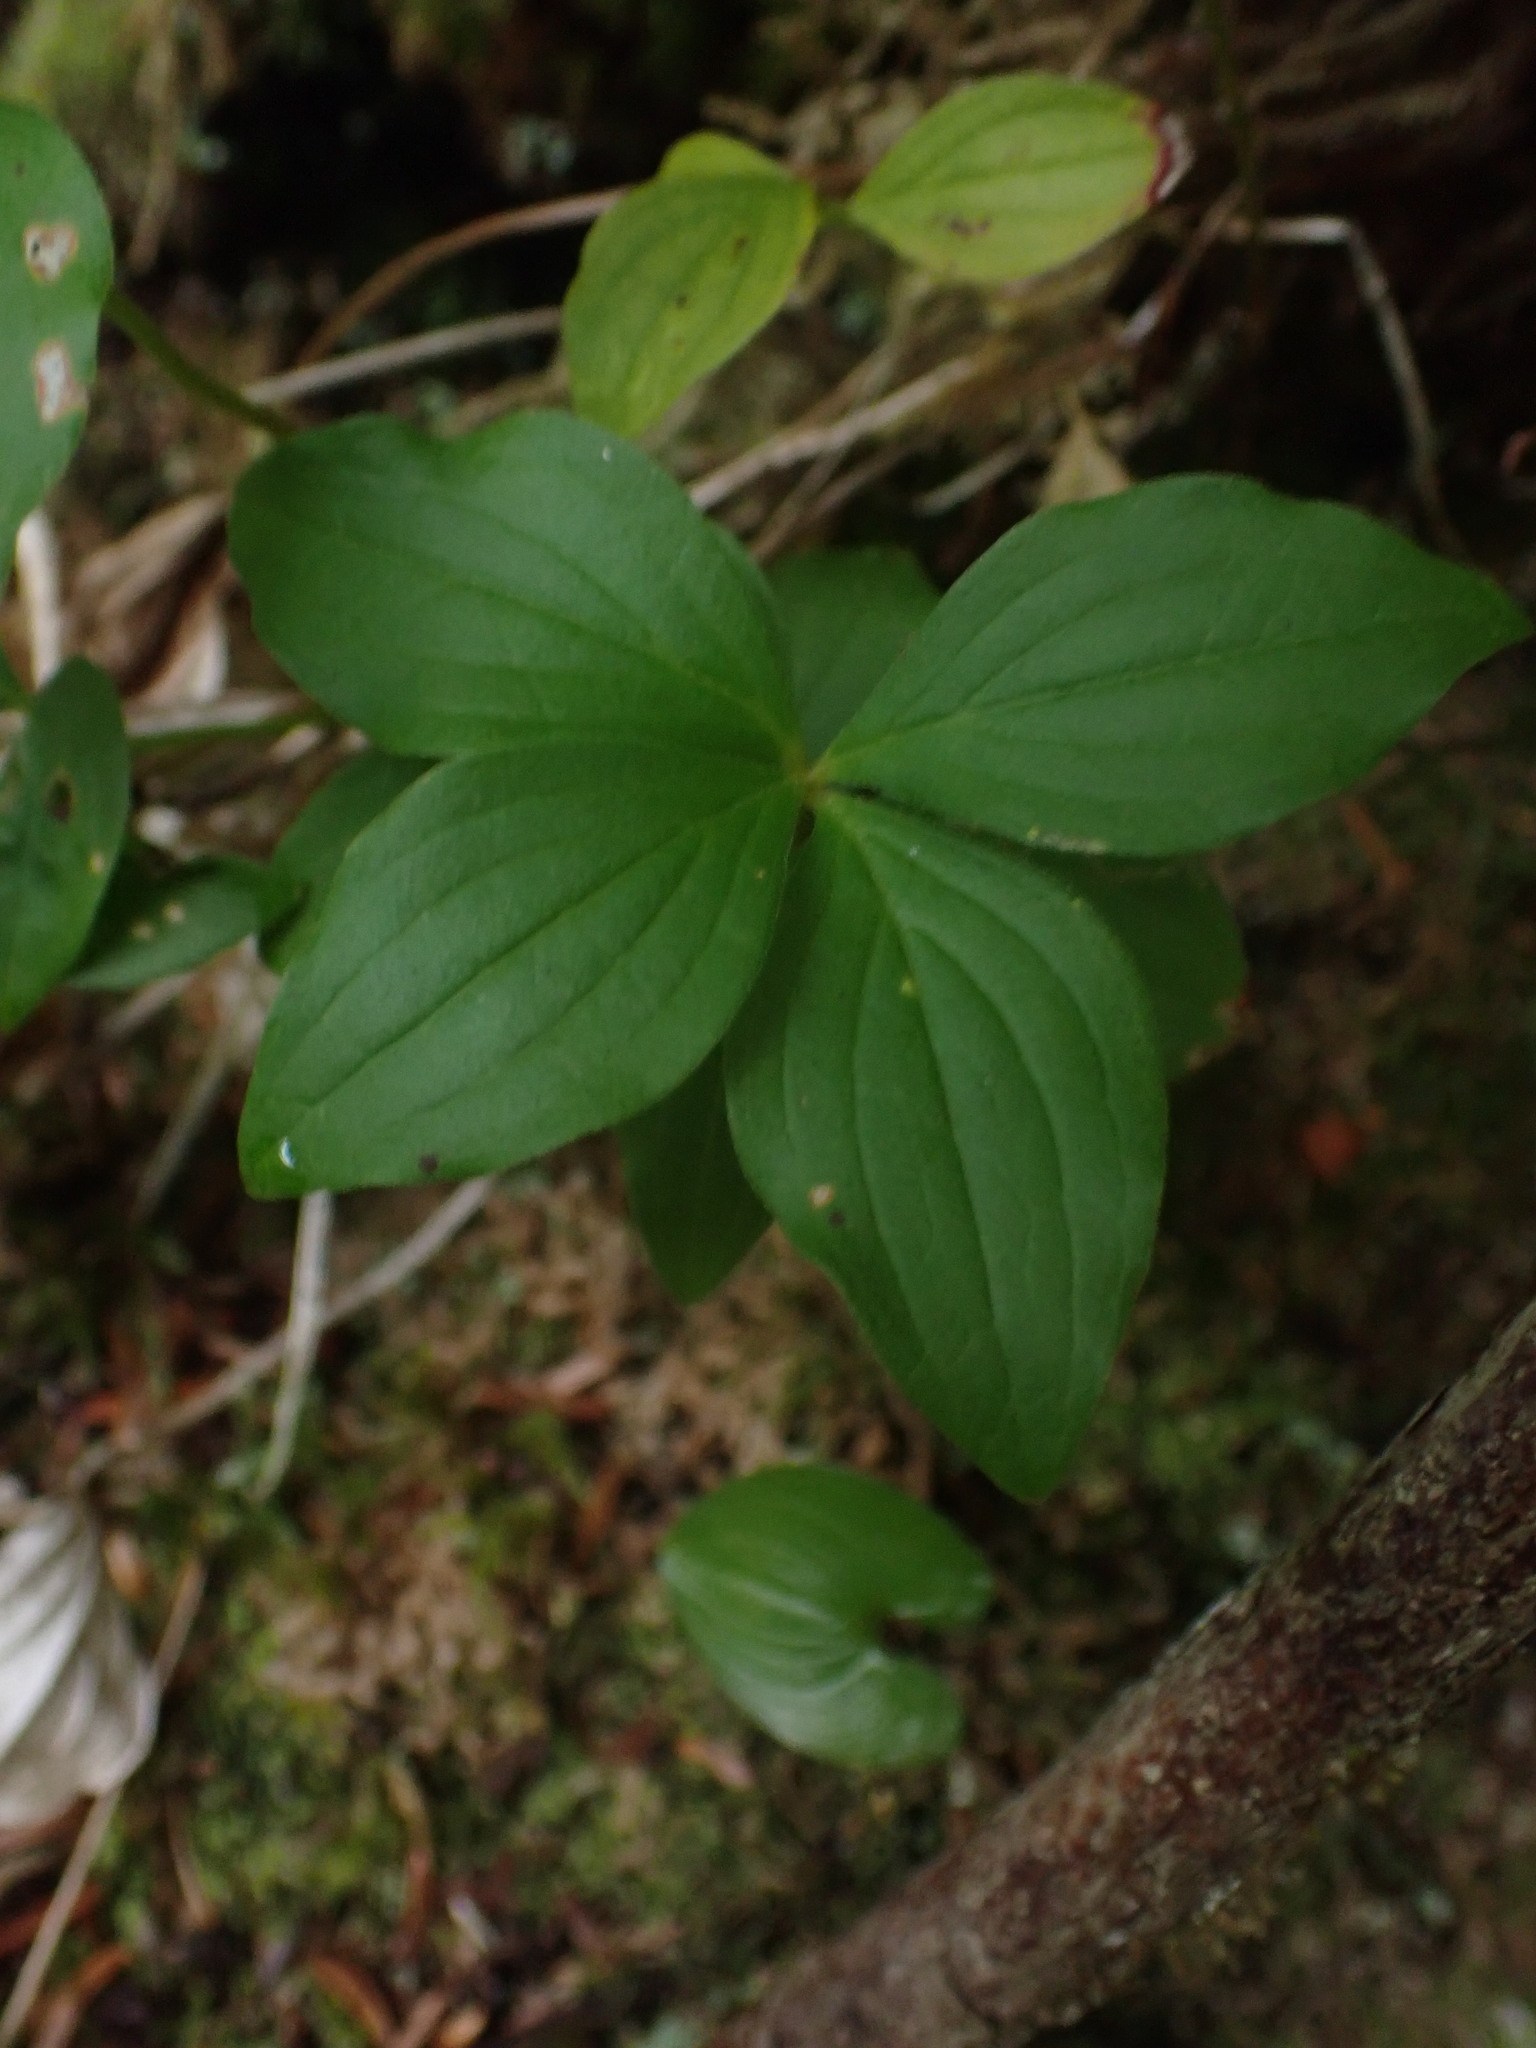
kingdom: Plantae
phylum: Tracheophyta
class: Magnoliopsida
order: Cornales
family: Cornaceae
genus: Cornus
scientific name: Cornus unalaschkensis
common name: Alaska bunchberry
